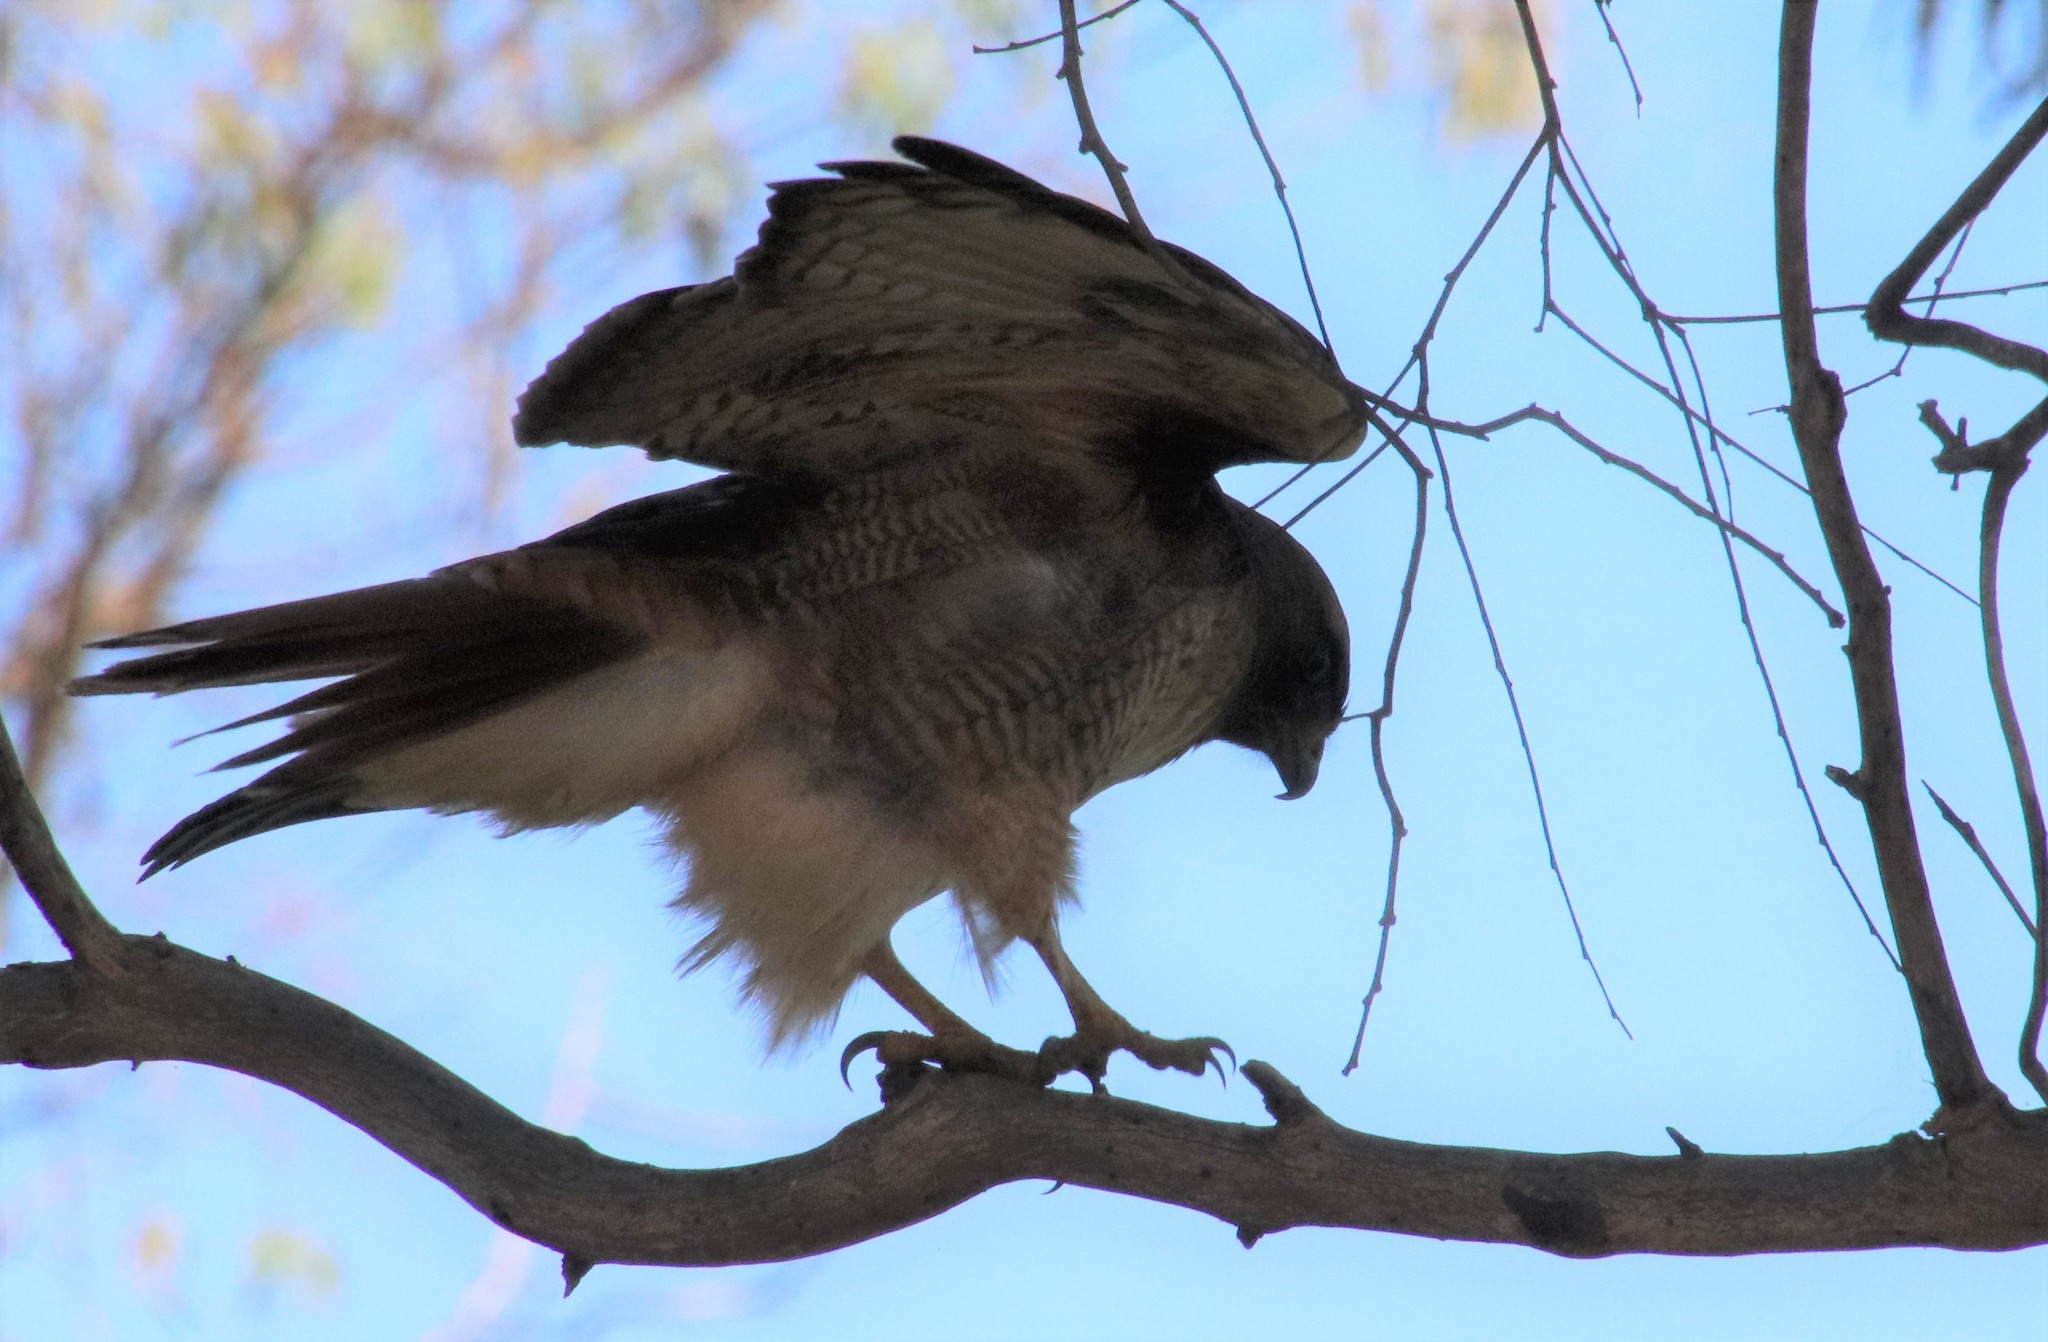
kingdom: Animalia
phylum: Chordata
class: Aves
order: Accipitriformes
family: Accipitridae
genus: Buteo
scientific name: Buteo jamaicensis
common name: Red-tailed hawk
